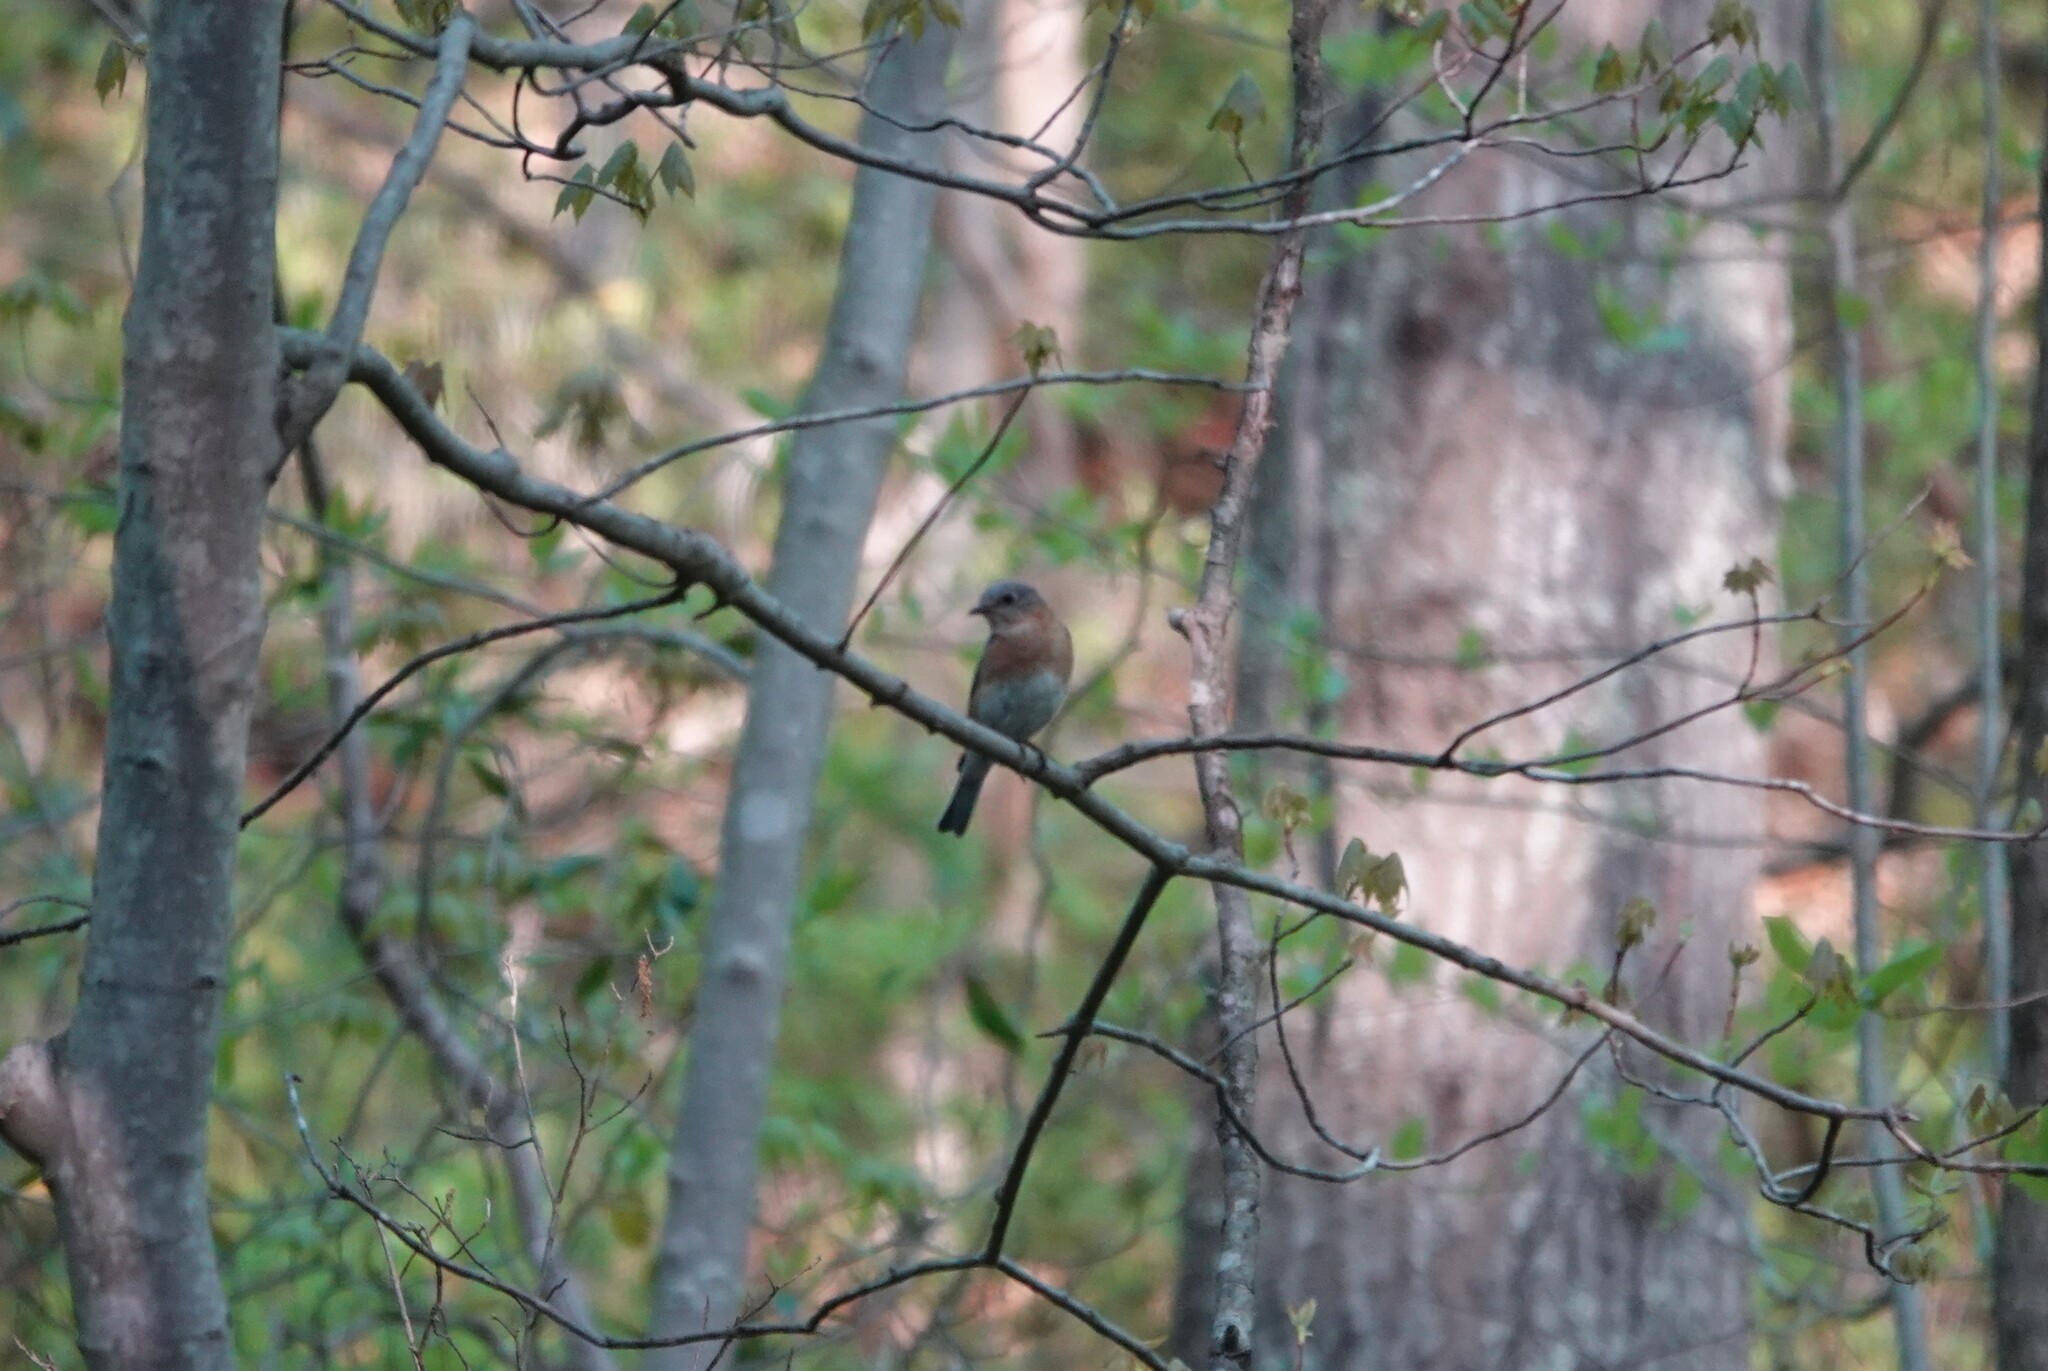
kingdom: Animalia
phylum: Chordata
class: Aves
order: Passeriformes
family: Turdidae
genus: Sialia
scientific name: Sialia sialis
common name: Eastern bluebird
